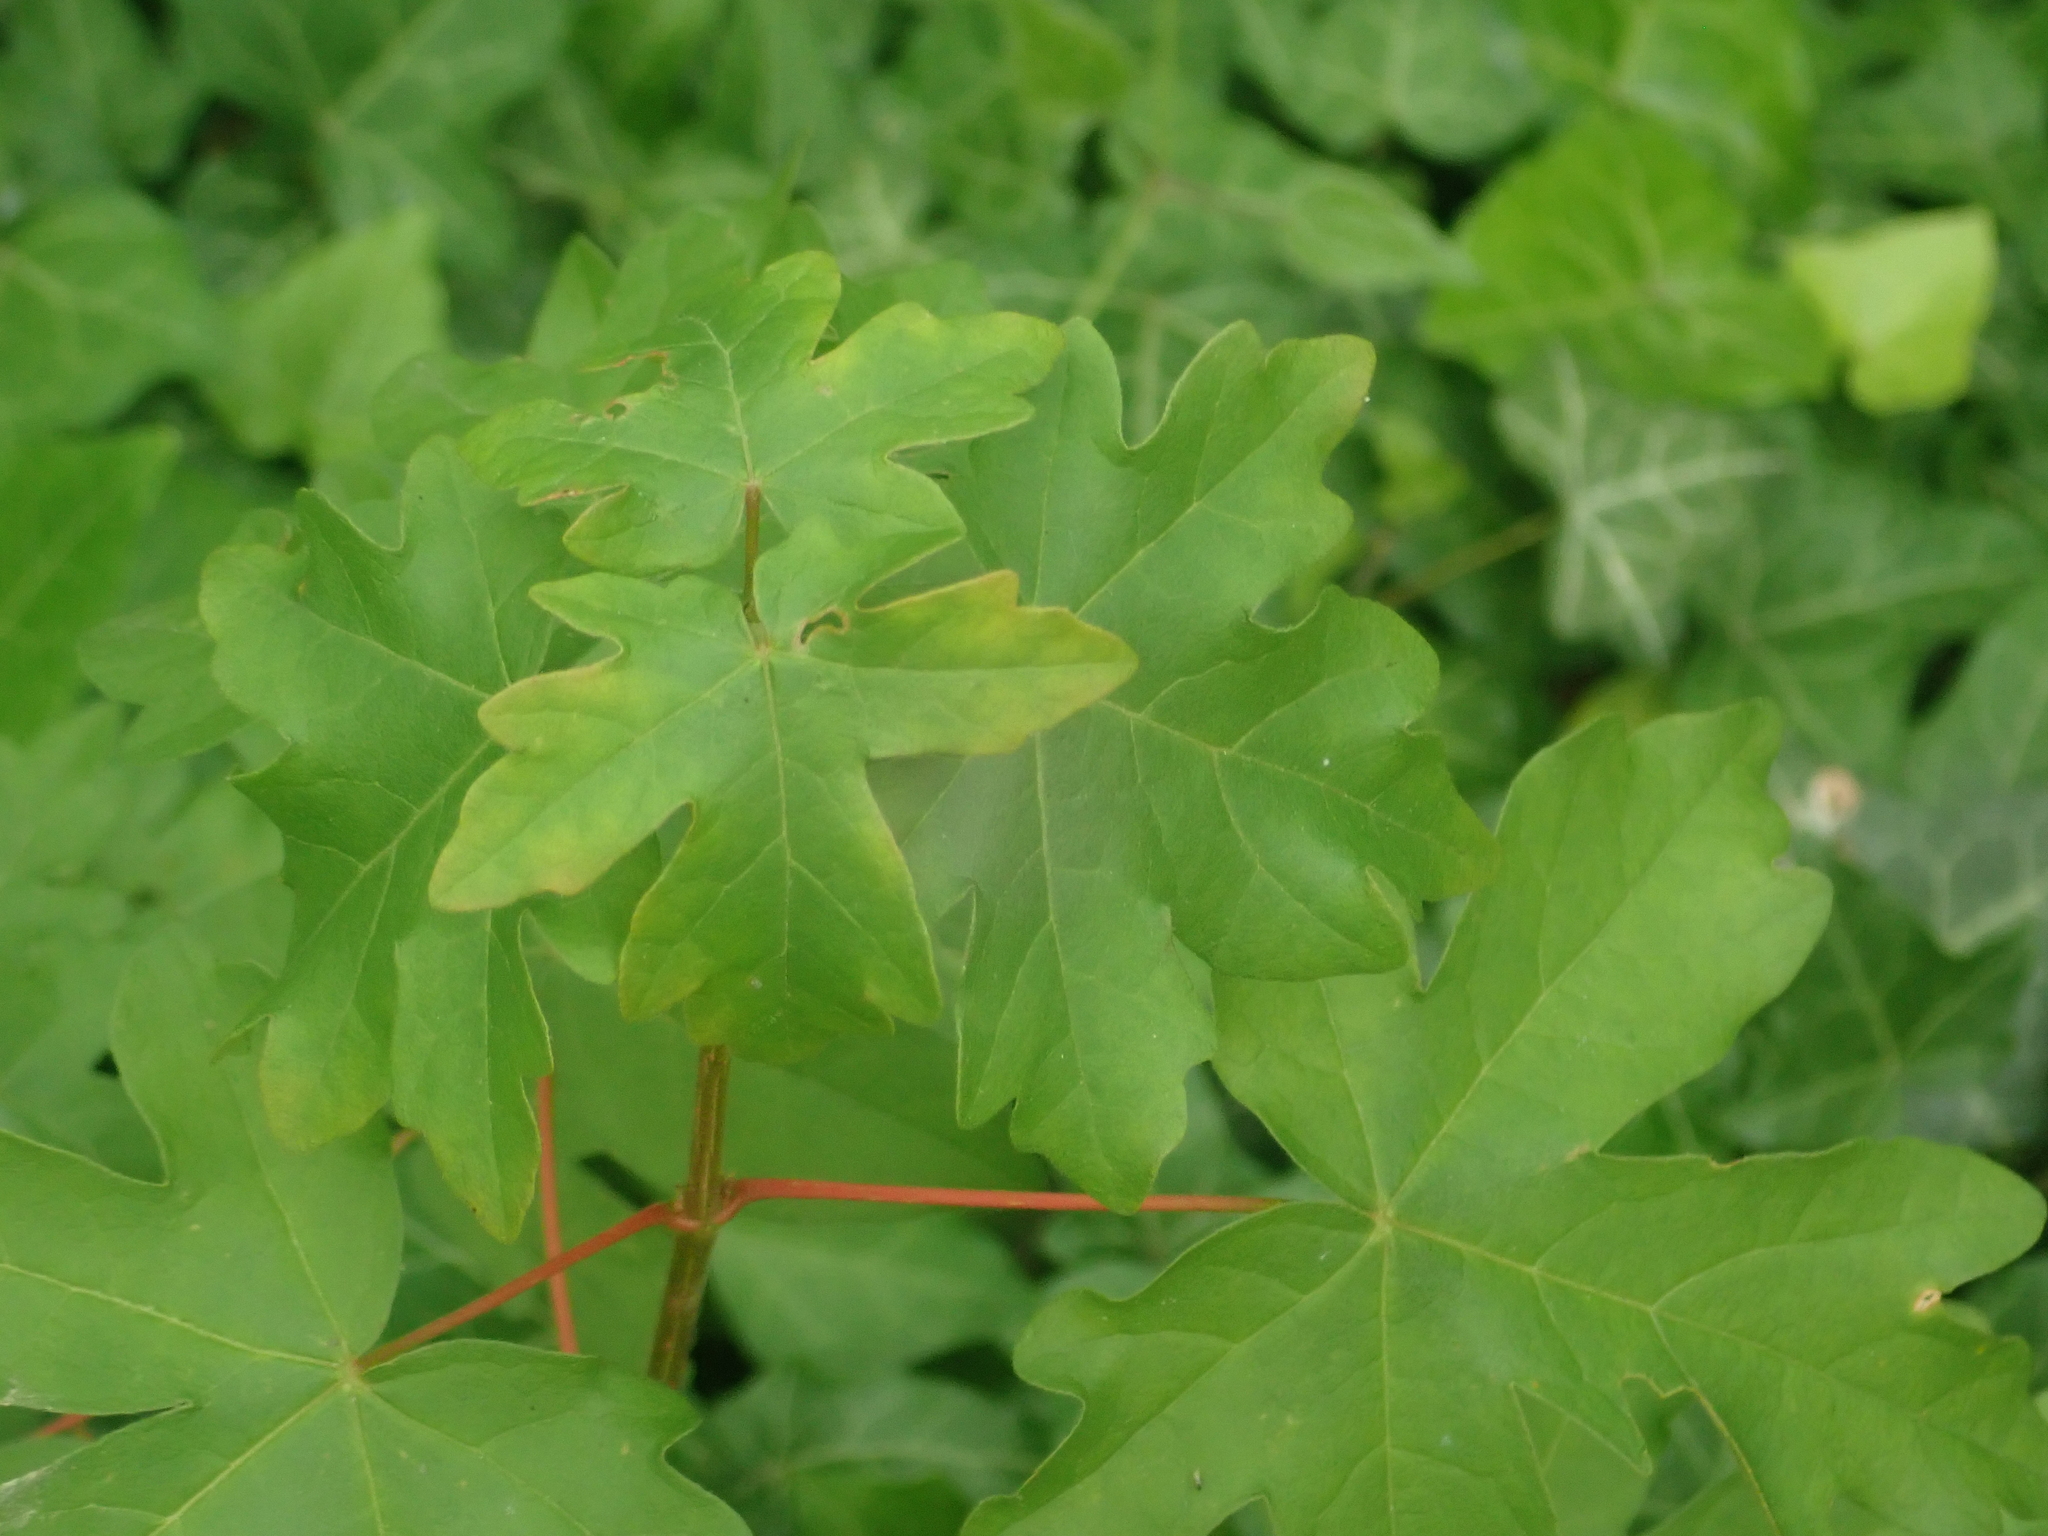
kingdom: Plantae
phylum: Tracheophyta
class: Magnoliopsida
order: Sapindales
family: Sapindaceae
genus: Acer
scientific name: Acer campestre
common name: Field maple
